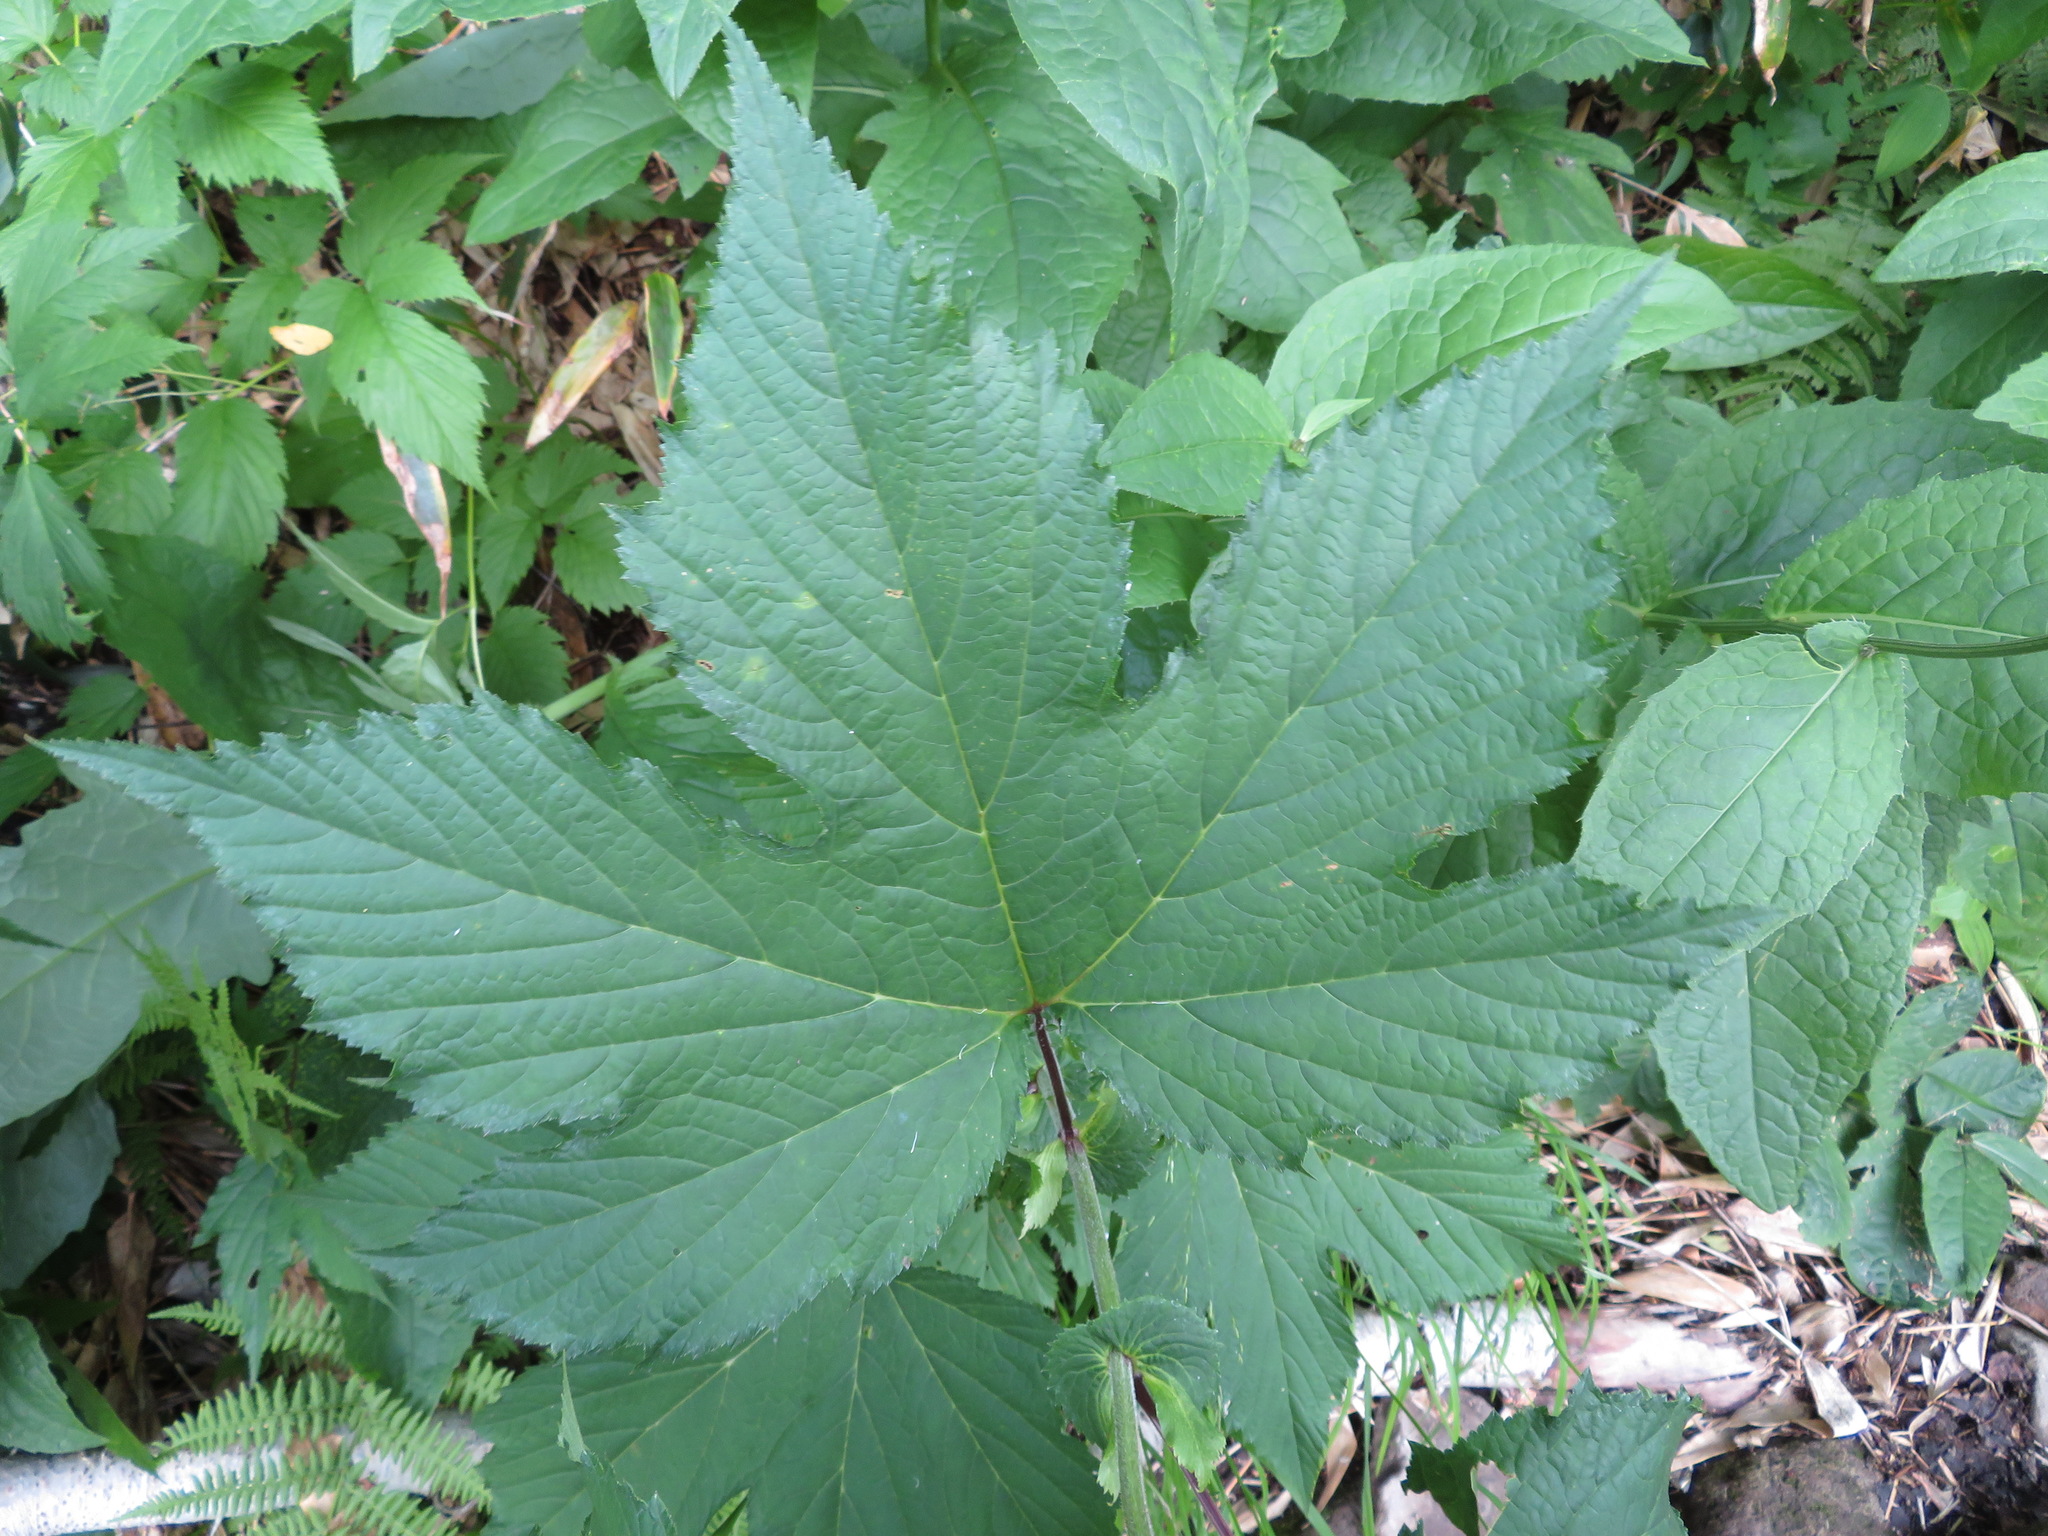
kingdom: Plantae
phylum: Tracheophyta
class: Magnoliopsida
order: Rosales
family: Rosaceae
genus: Filipendula
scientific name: Filipendula camtschatica
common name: Giant meadowsweet
